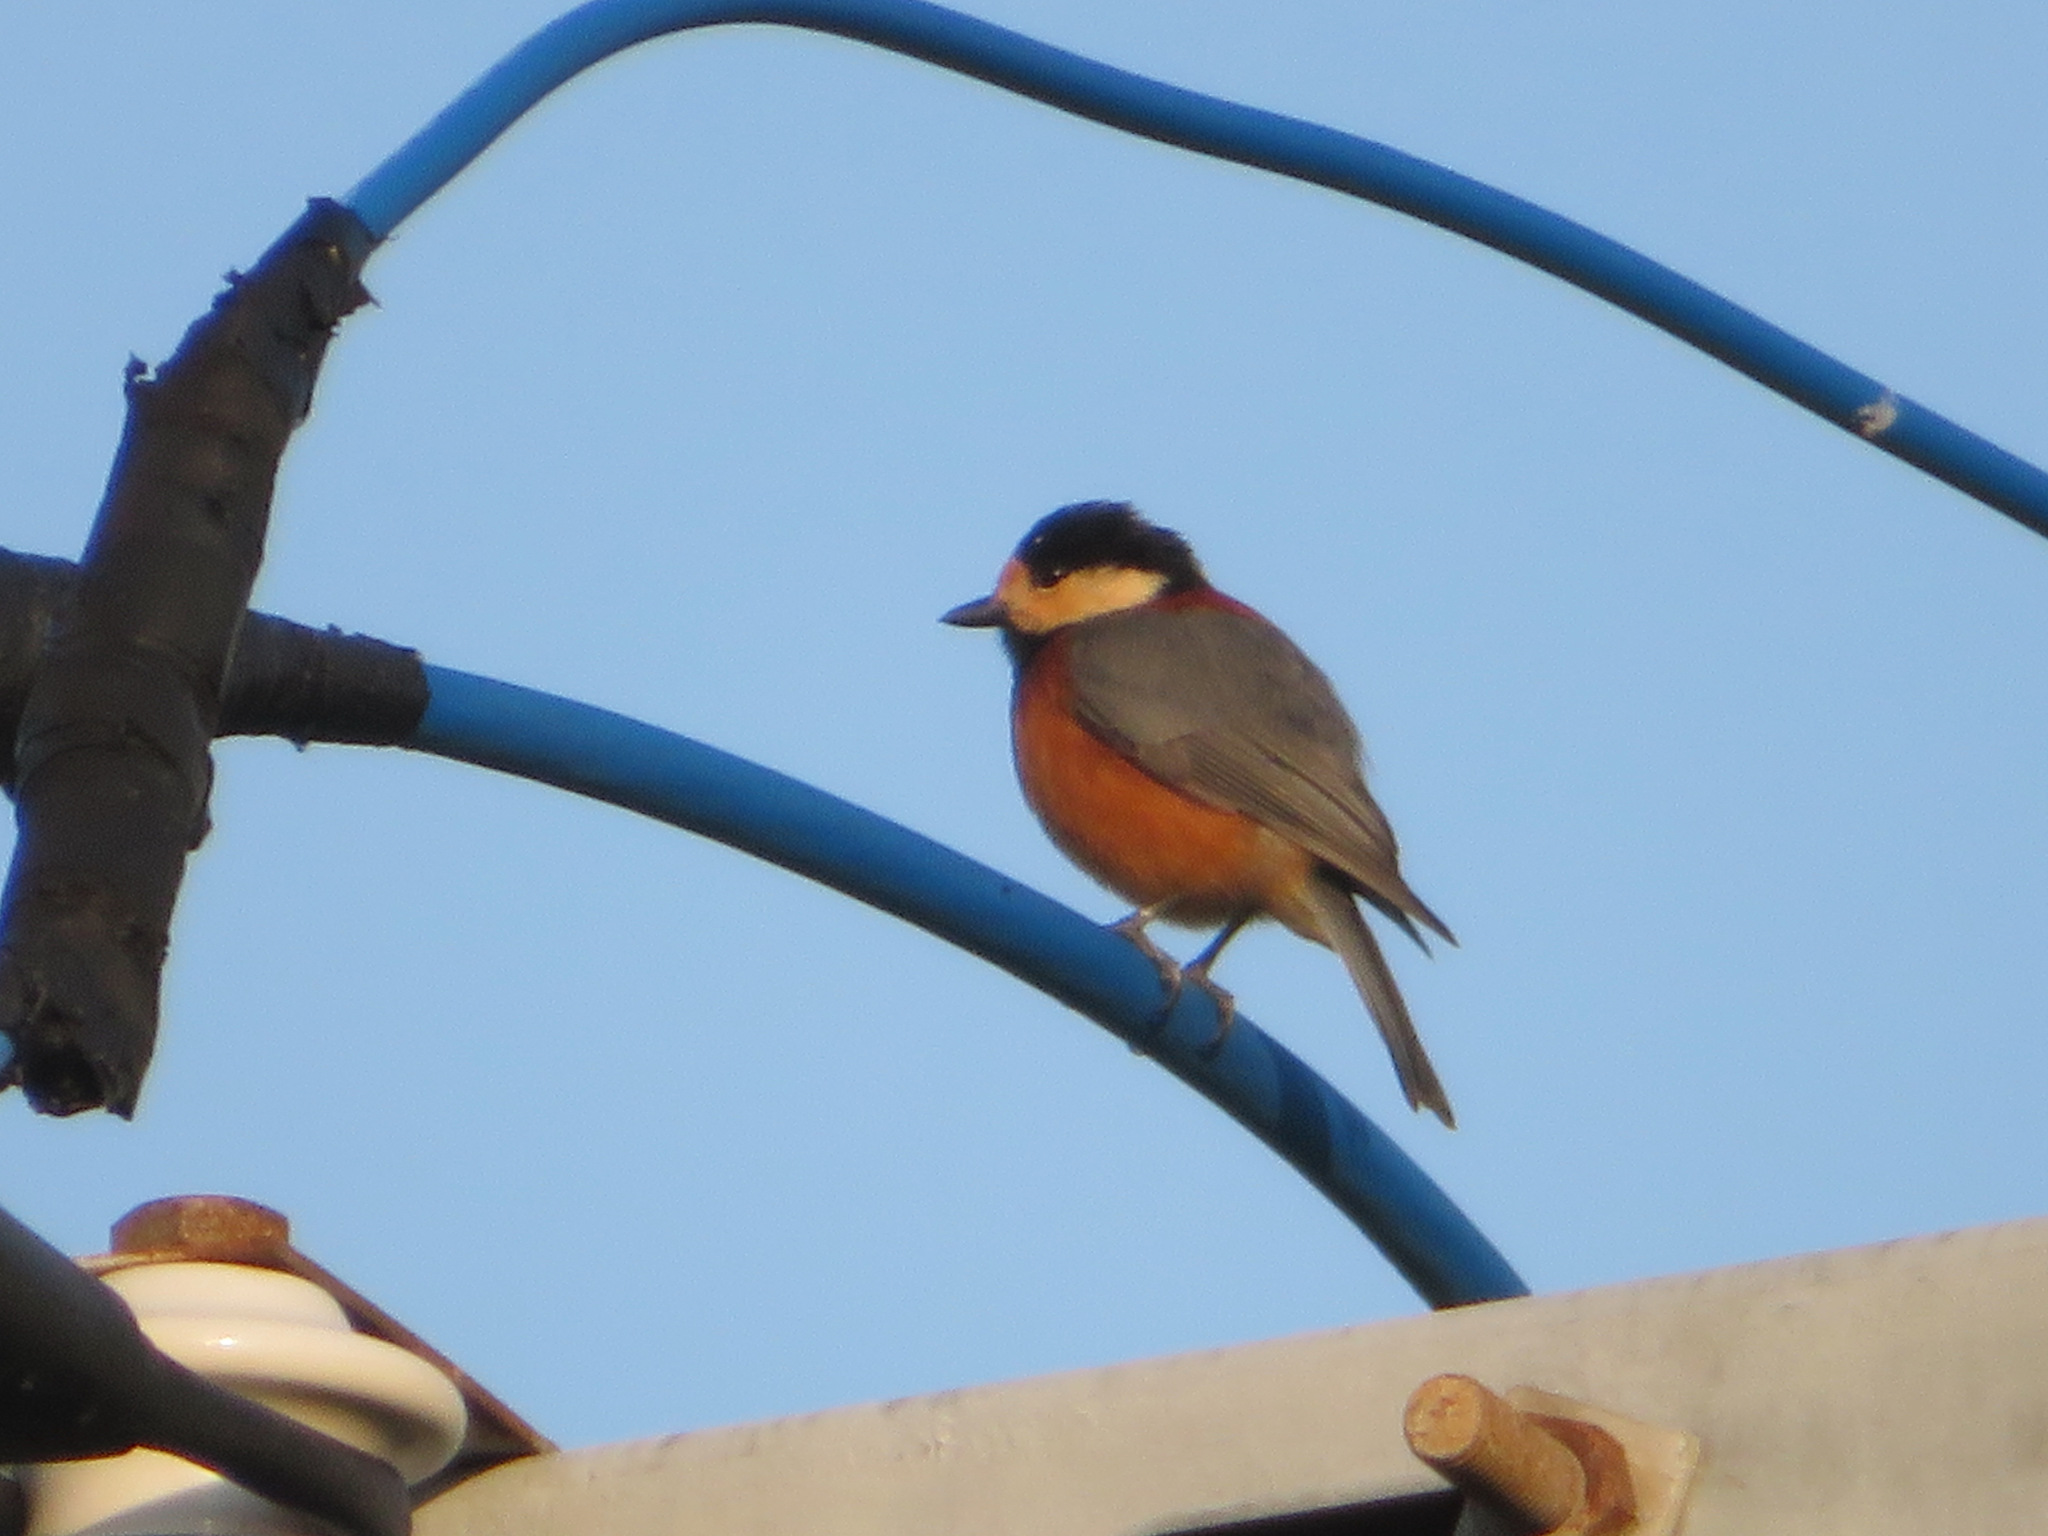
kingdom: Animalia
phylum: Chordata
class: Aves
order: Passeriformes
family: Paridae
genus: Poecile
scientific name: Poecile varius
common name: Varied tit
